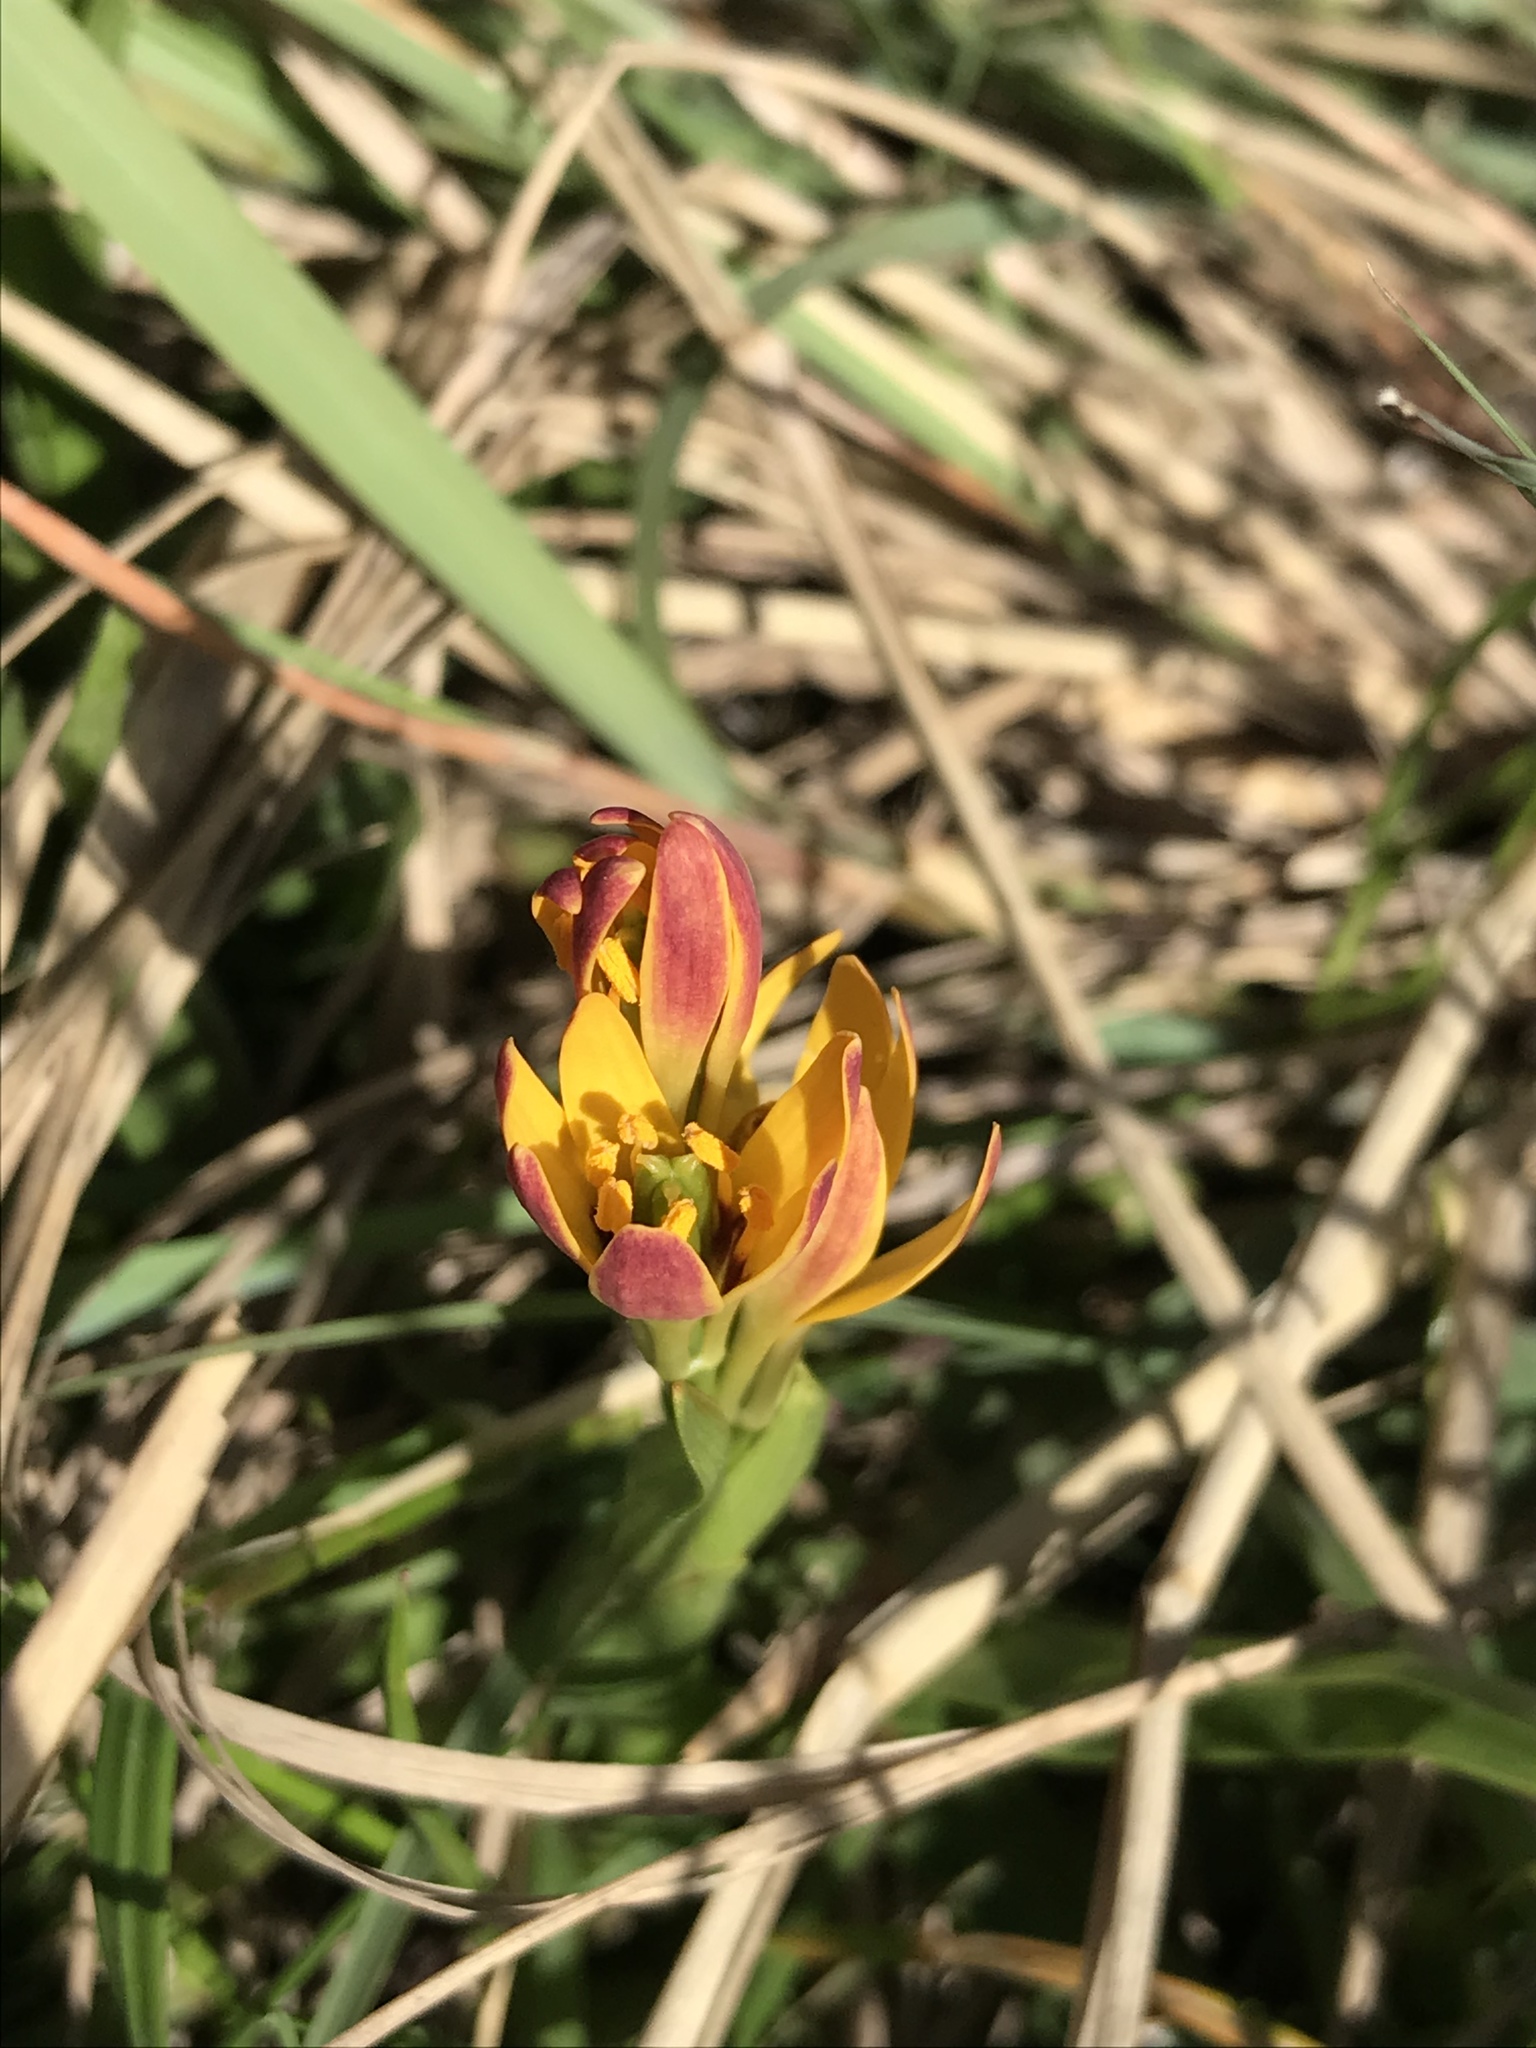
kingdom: Plantae
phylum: Tracheophyta
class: Liliopsida
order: Liliales
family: Colchicaceae
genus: Baeometra
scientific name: Baeometra uniflora
